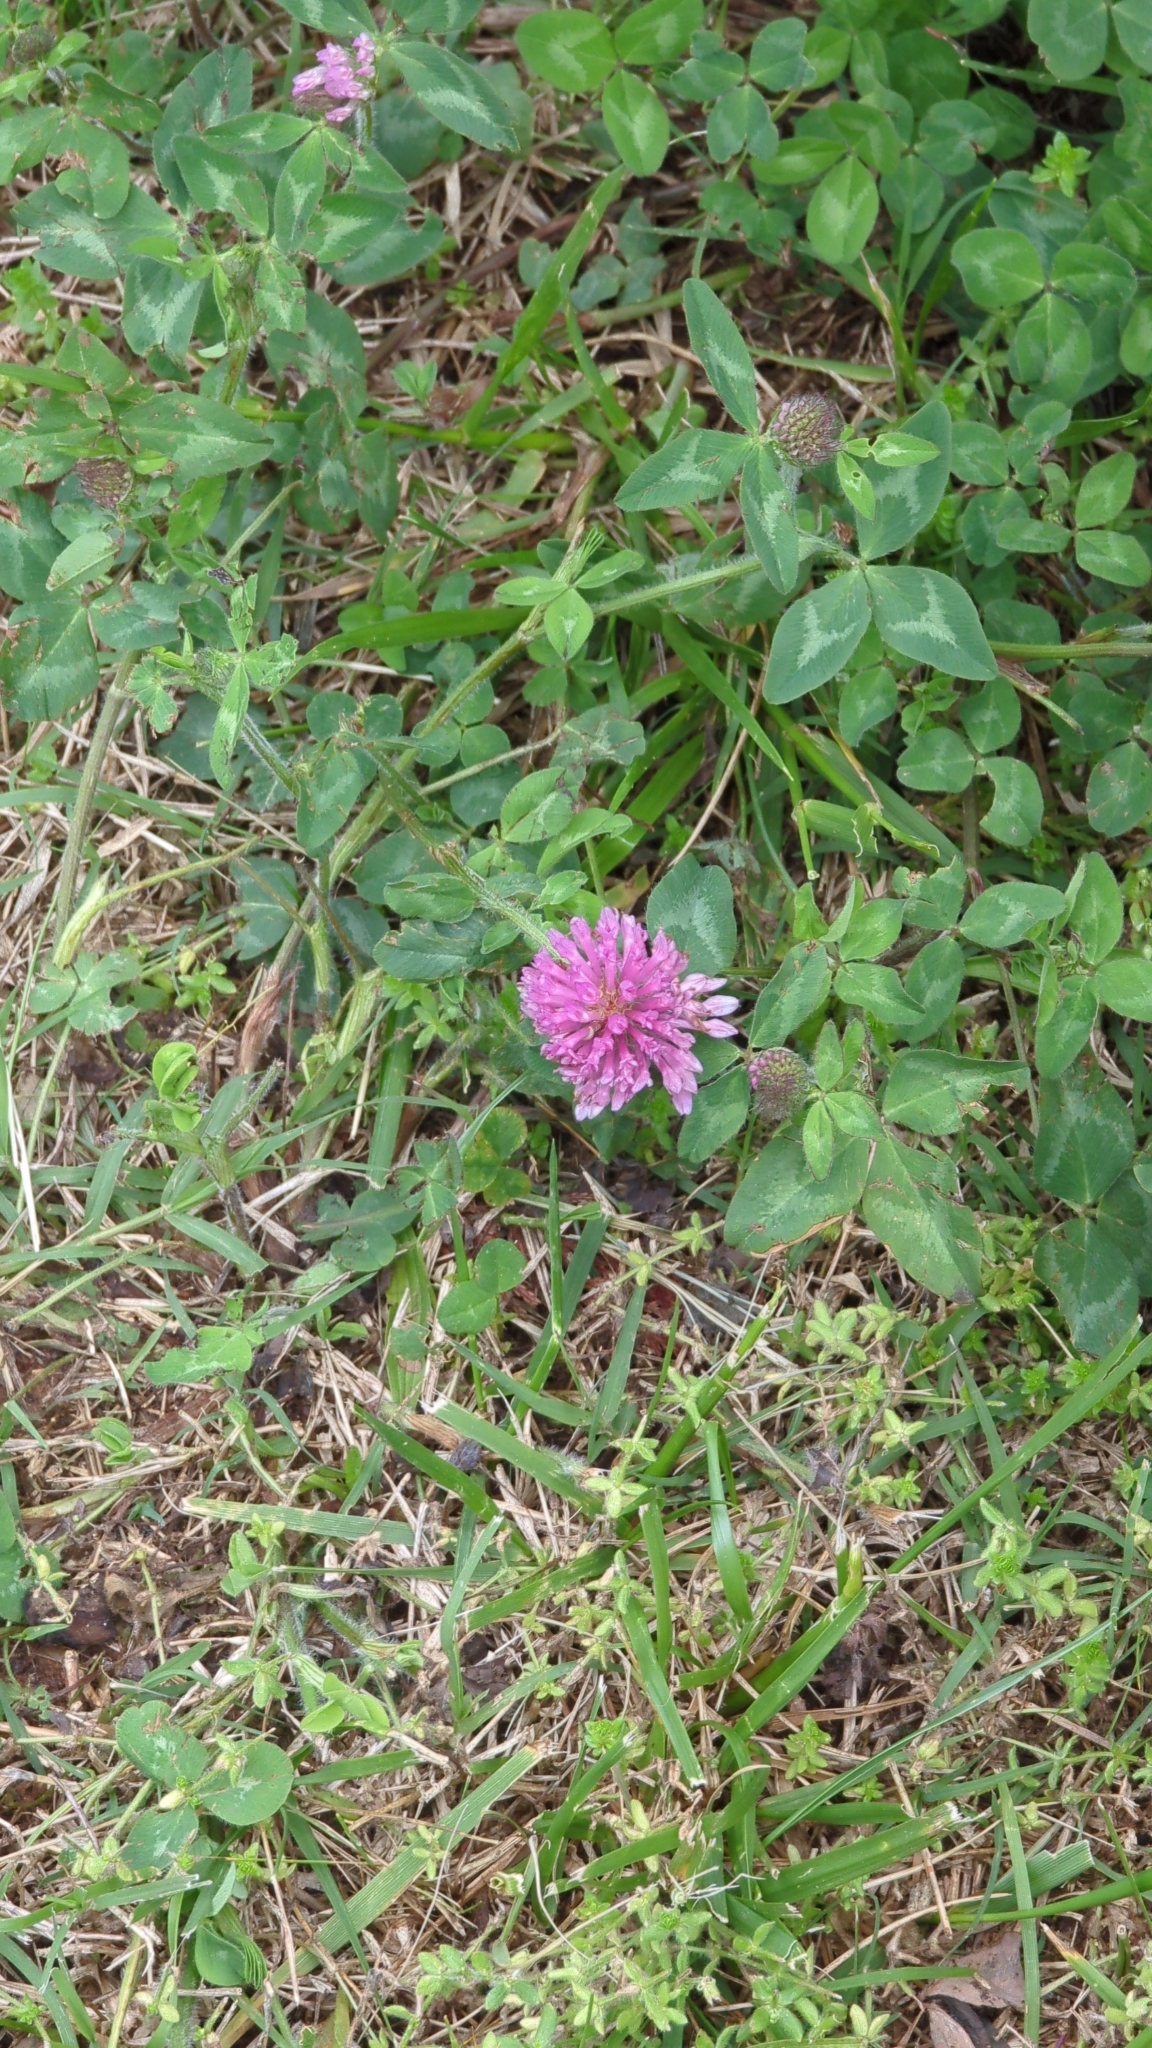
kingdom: Plantae
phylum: Tracheophyta
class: Magnoliopsida
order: Fabales
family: Fabaceae
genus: Trifolium
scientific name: Trifolium pratense
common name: Red clover
